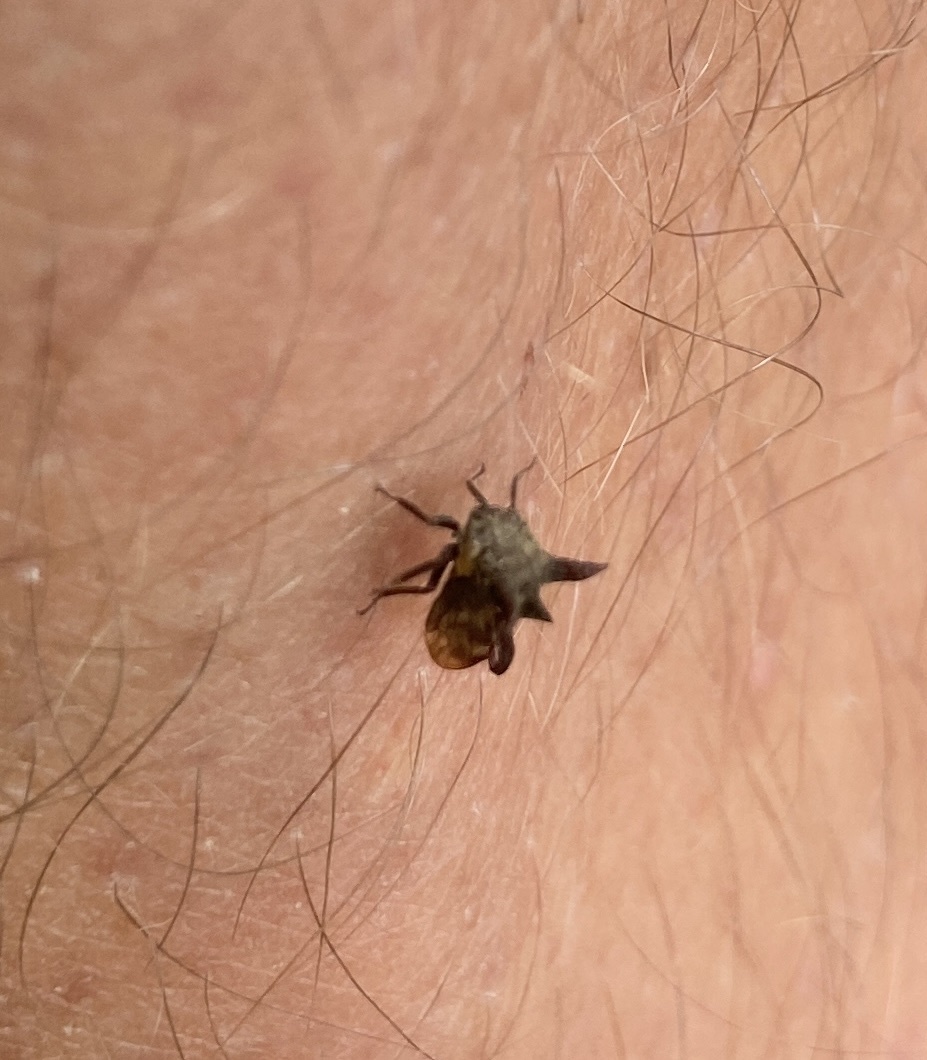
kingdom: Animalia
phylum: Arthropoda
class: Insecta
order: Hemiptera
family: Membracidae
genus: Acanthuchus
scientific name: Acanthuchus trispinifer
